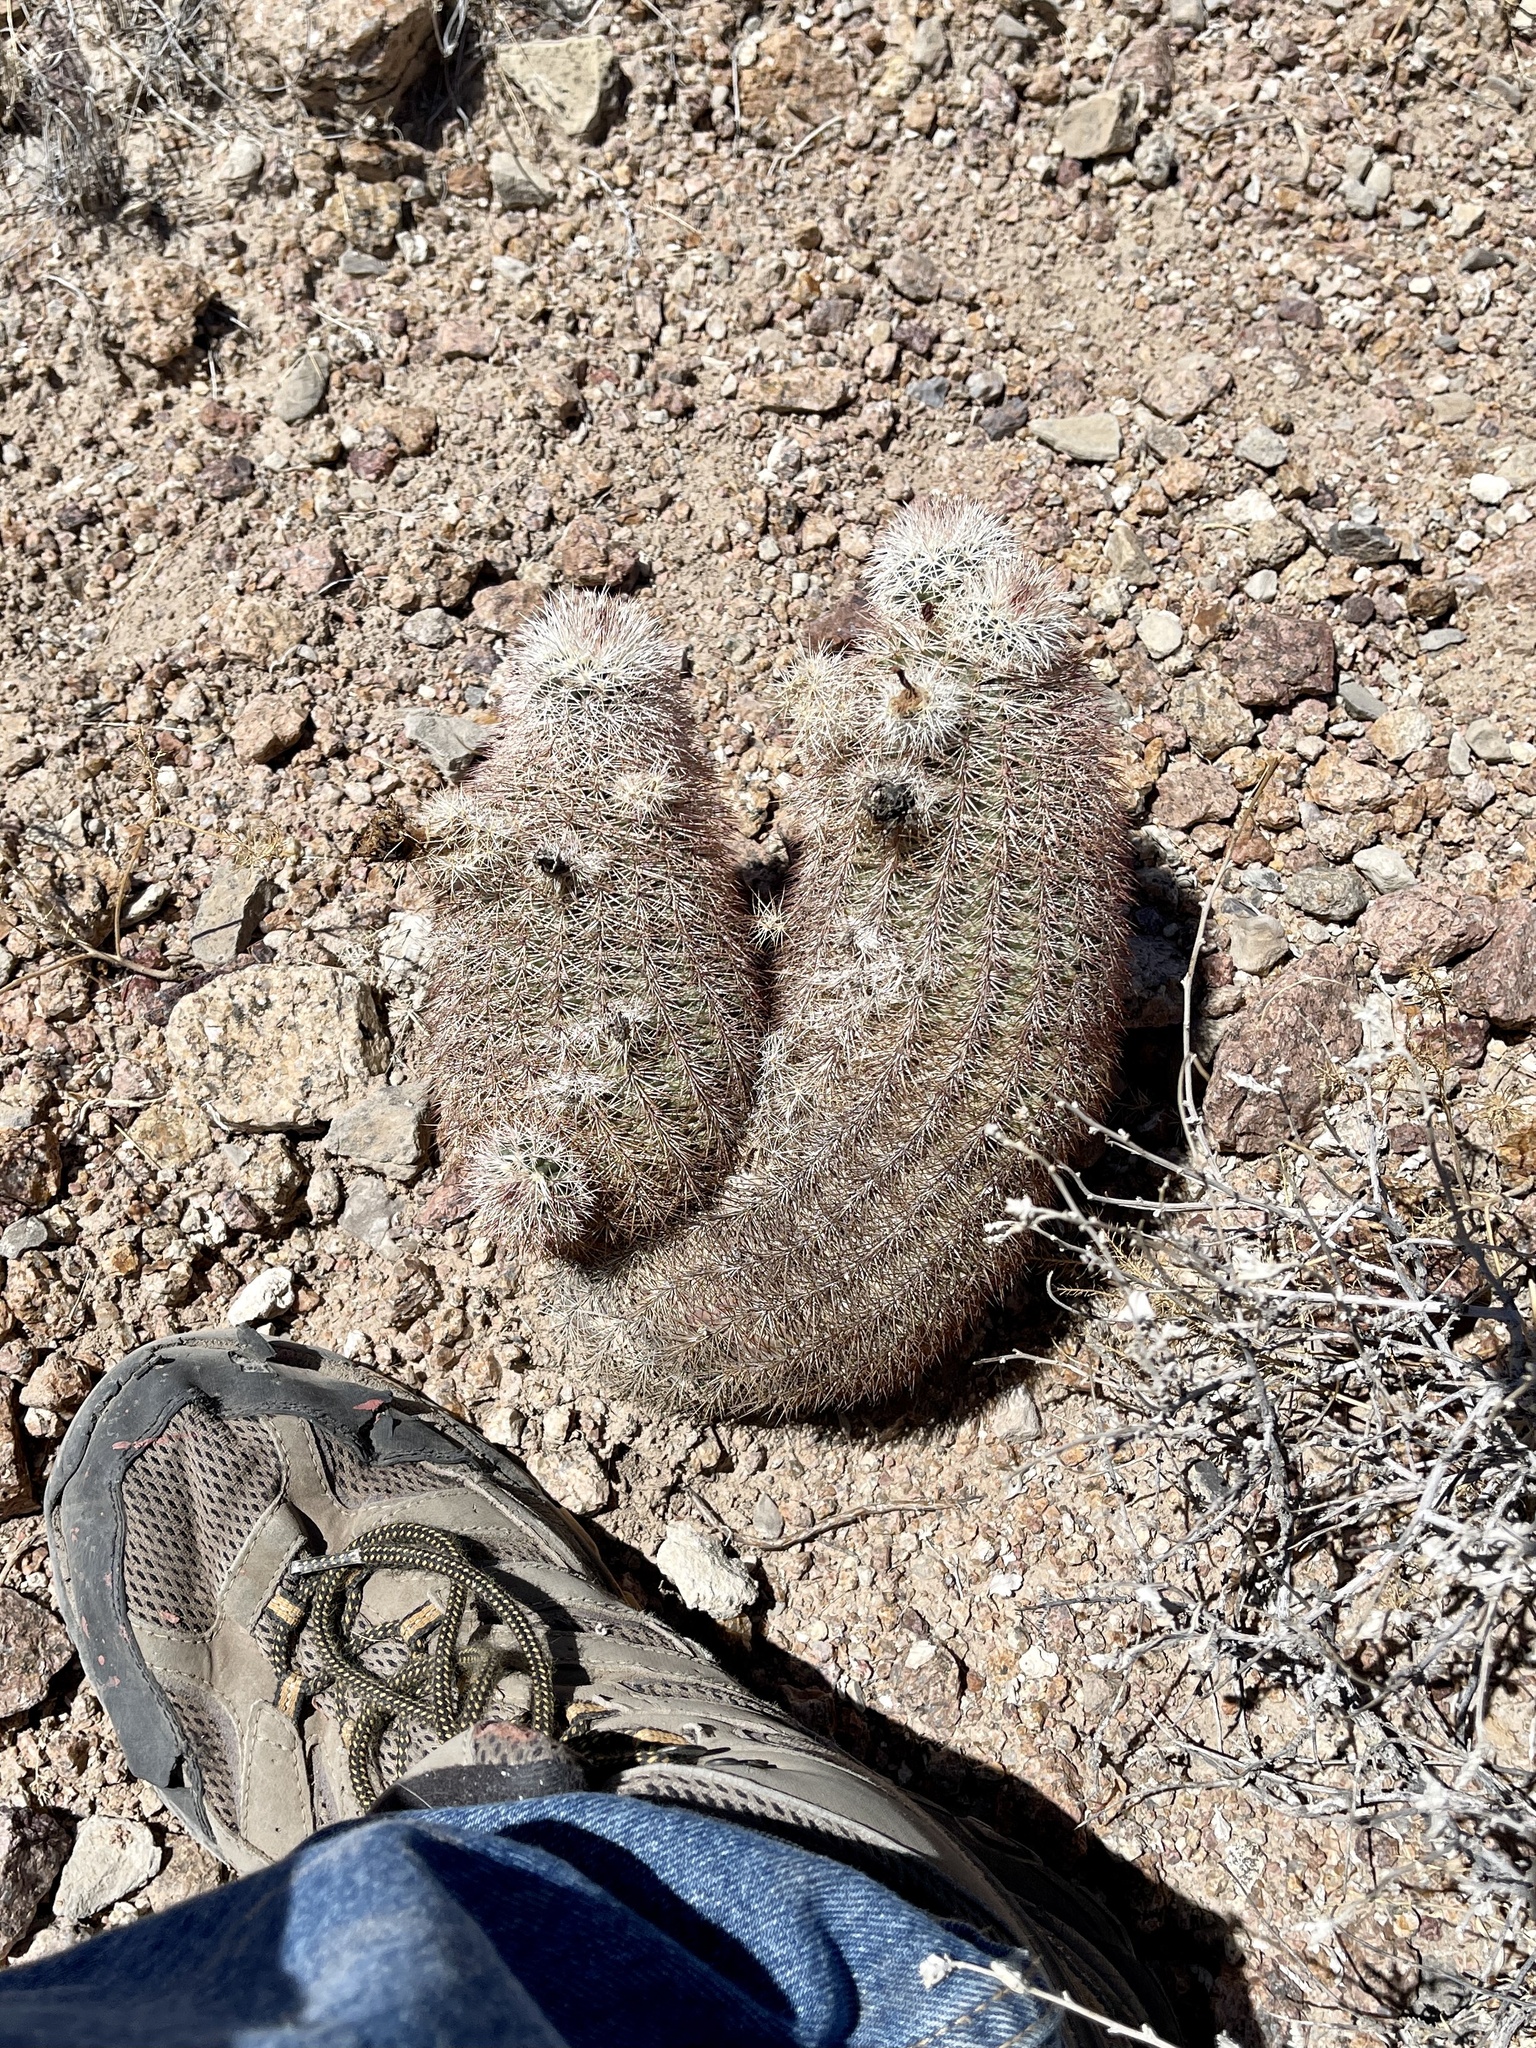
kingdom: Plantae
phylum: Tracheophyta
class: Magnoliopsida
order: Caryophyllales
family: Cactaceae
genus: Echinocereus
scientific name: Echinocereus dasyacanthus
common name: Spiny hedgehog cactus
